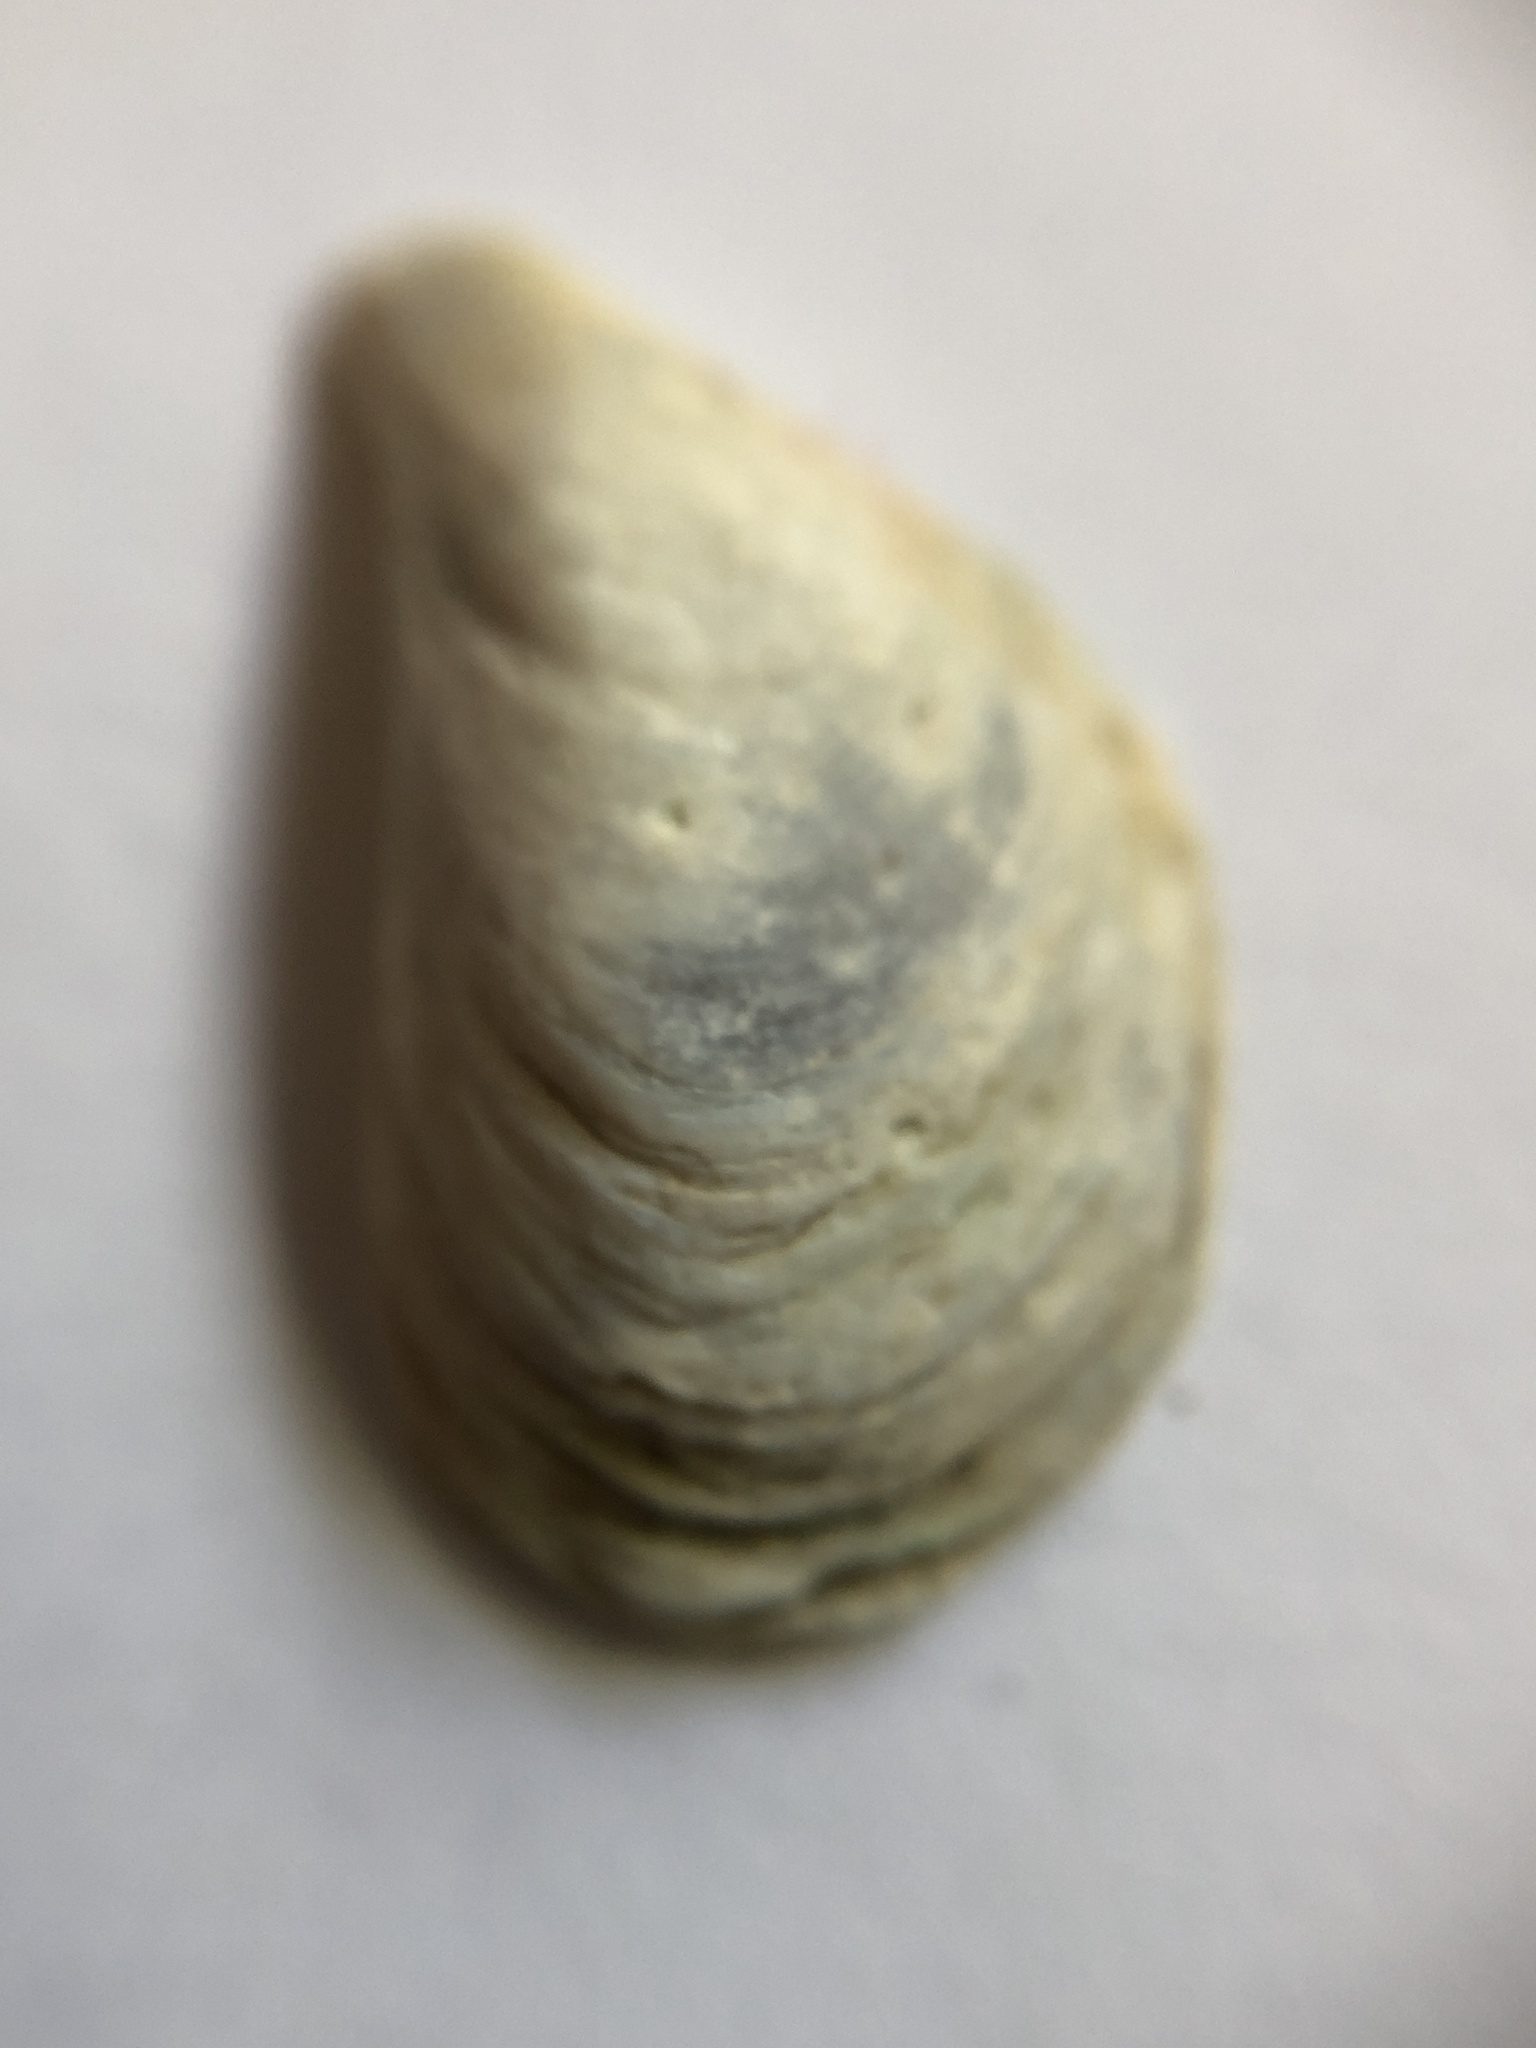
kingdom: Animalia
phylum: Mollusca
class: Bivalvia
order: Myida
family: Dreissenidae
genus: Dreissena
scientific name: Dreissena bugensis
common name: Quagga mussel
